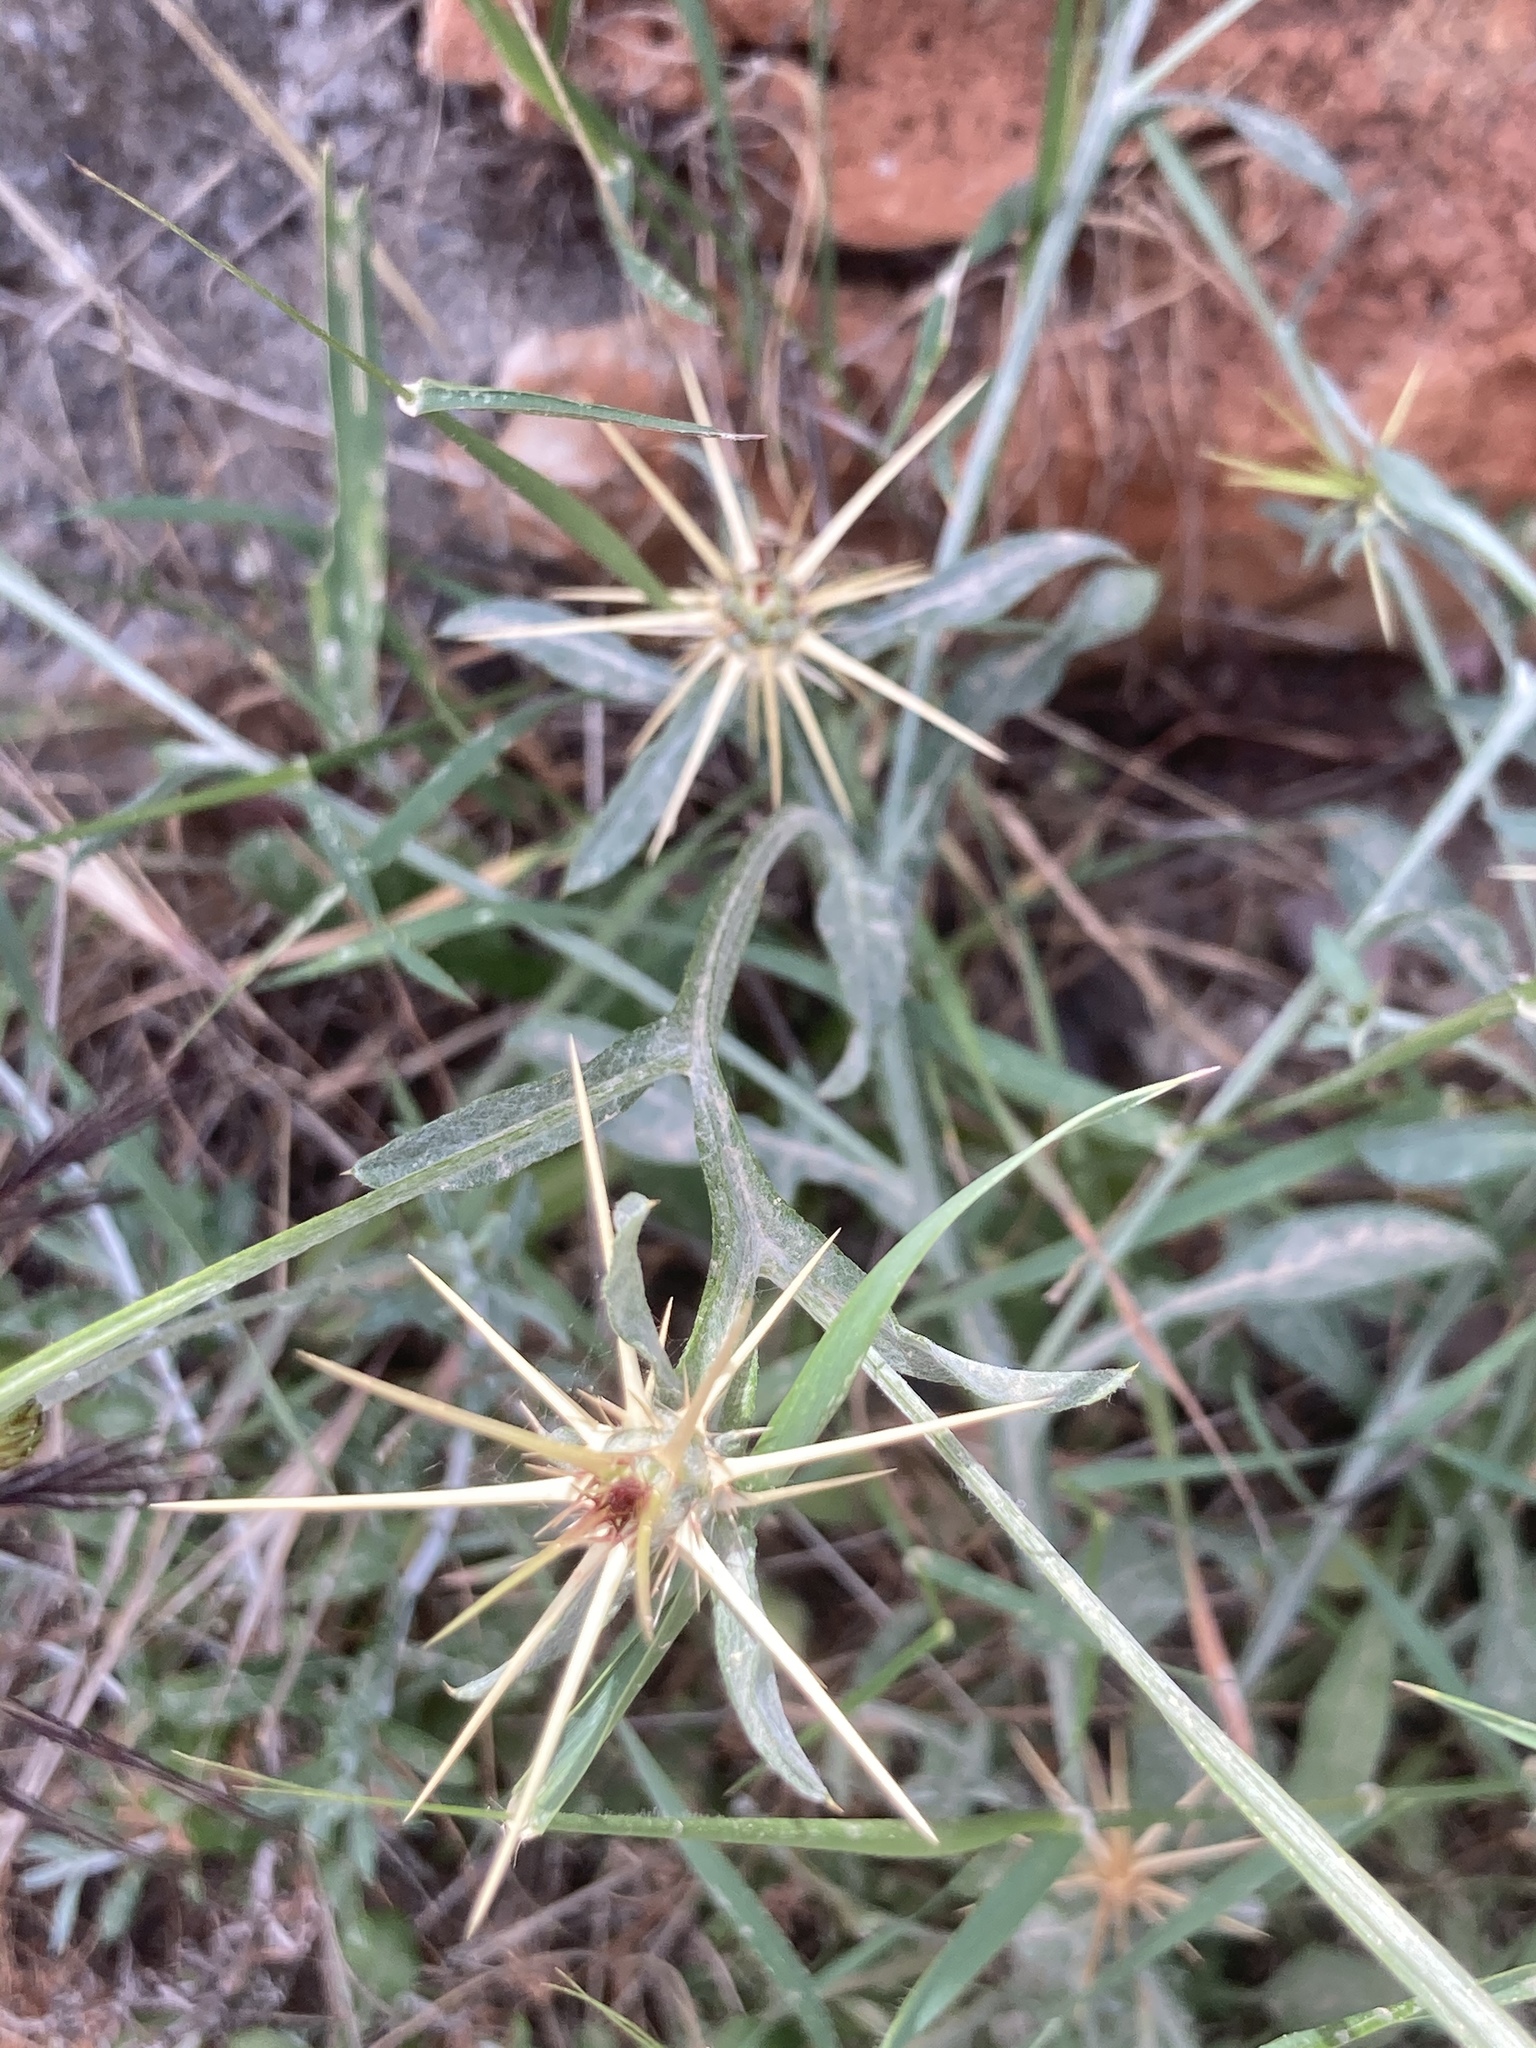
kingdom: Plantae
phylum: Tracheophyta
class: Magnoliopsida
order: Asterales
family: Asteraceae
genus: Centaurea
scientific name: Centaurea idaea
